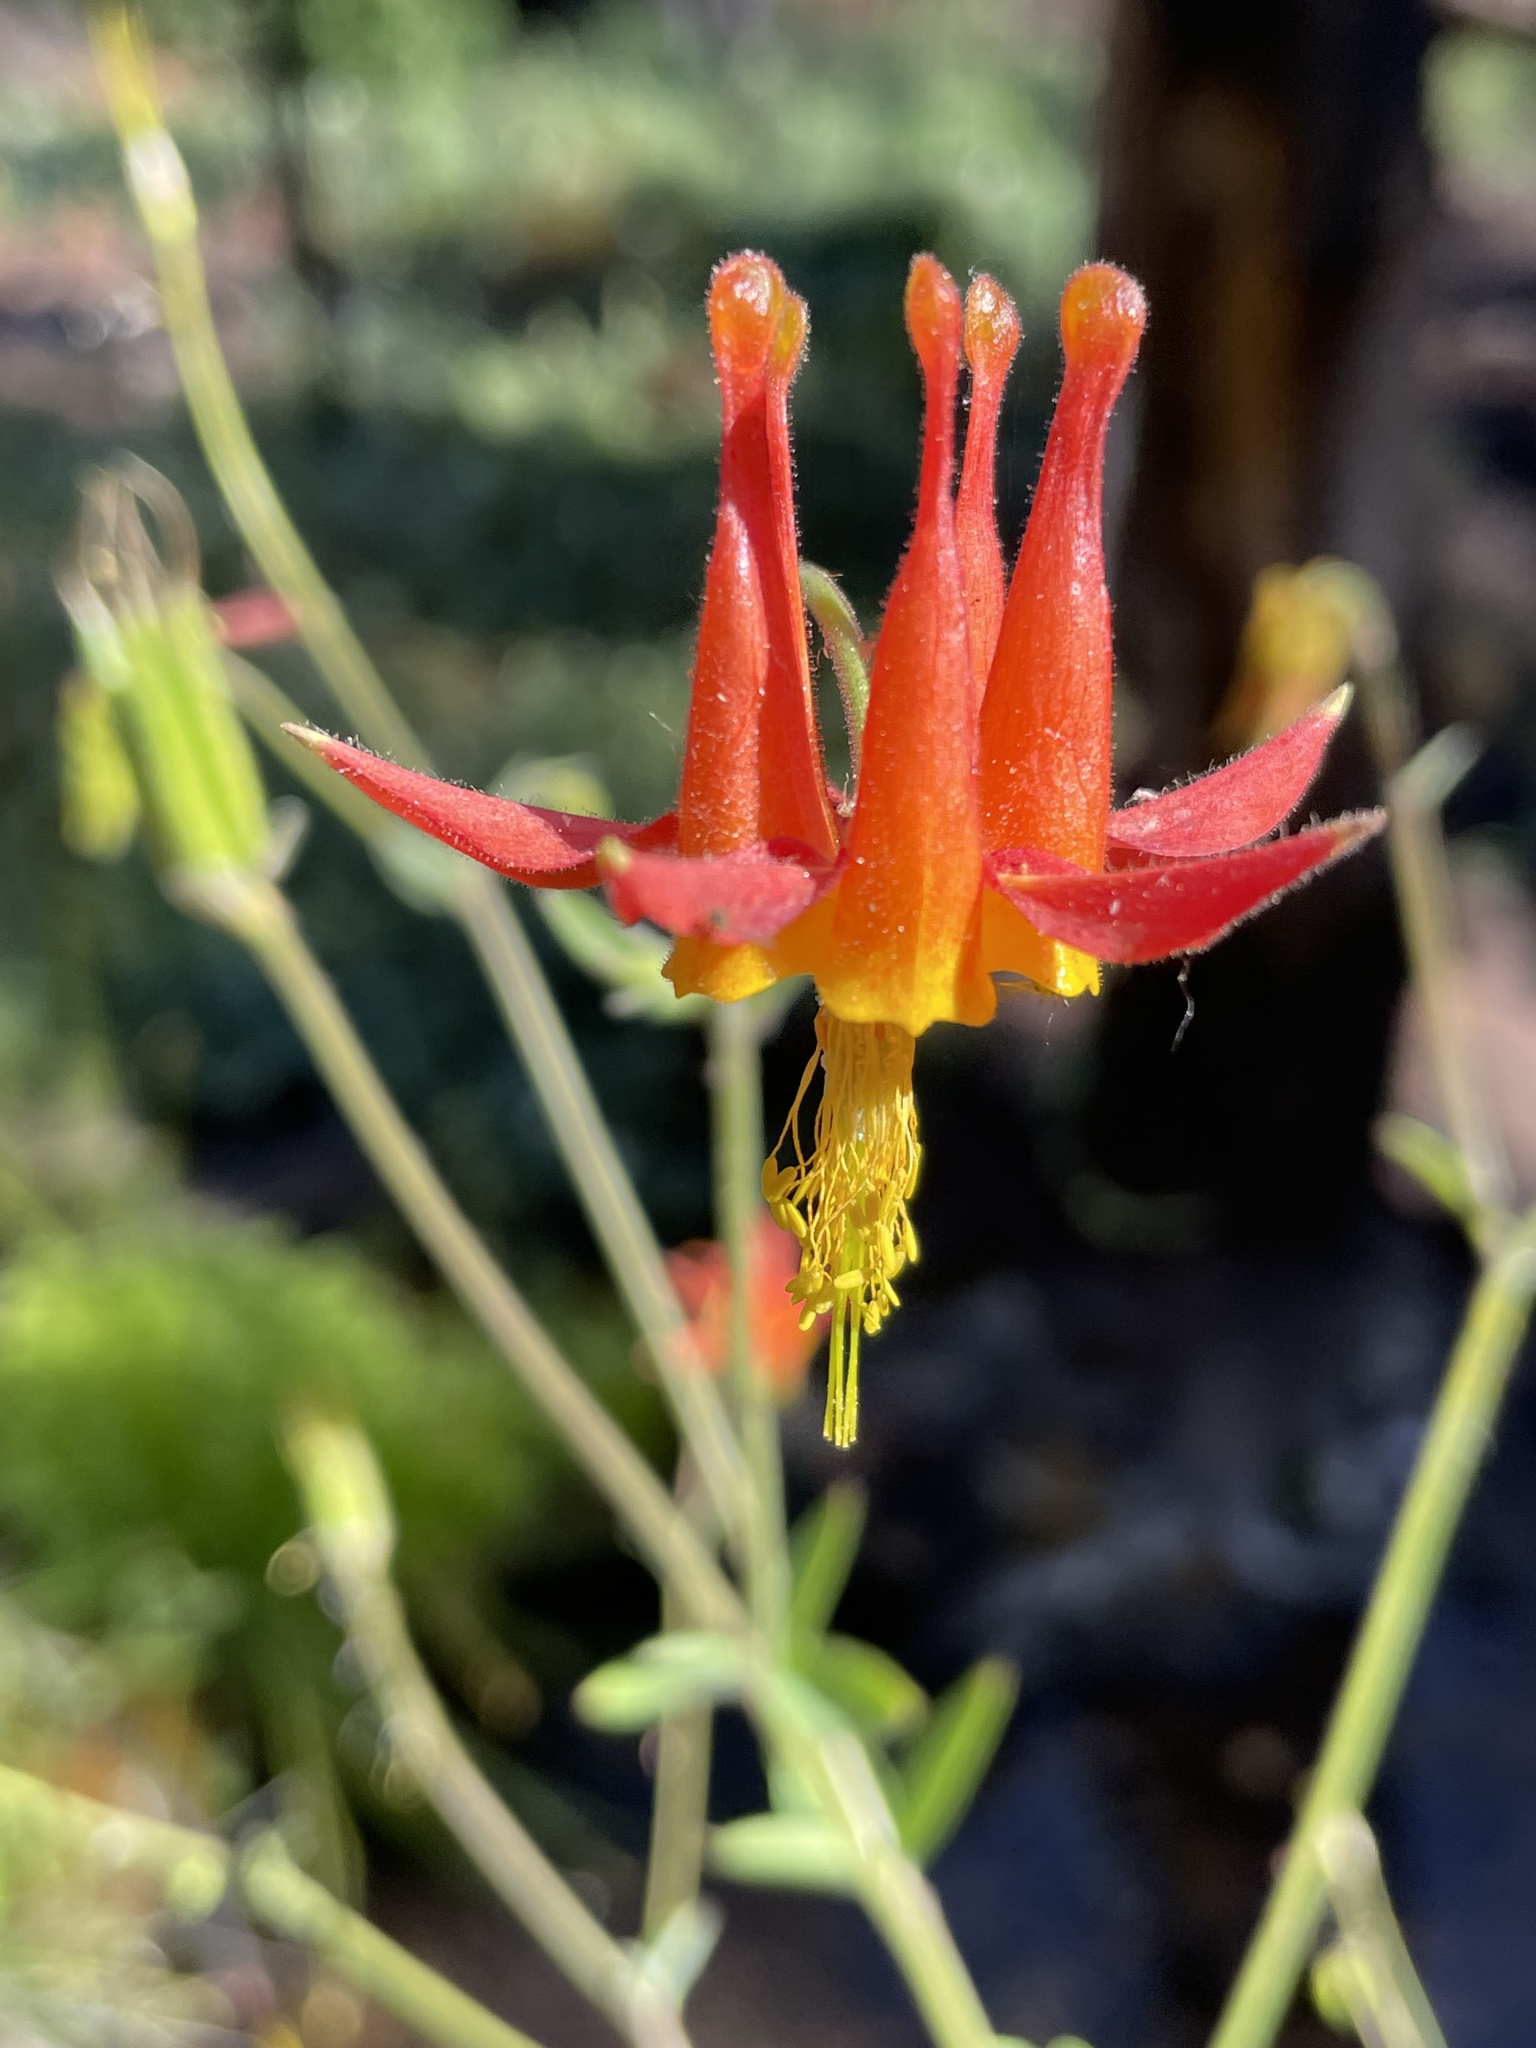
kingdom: Plantae
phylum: Tracheophyta
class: Magnoliopsida
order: Ranunculales
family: Ranunculaceae
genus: Aquilegia
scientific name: Aquilegia formosa
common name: Sitka columbine
